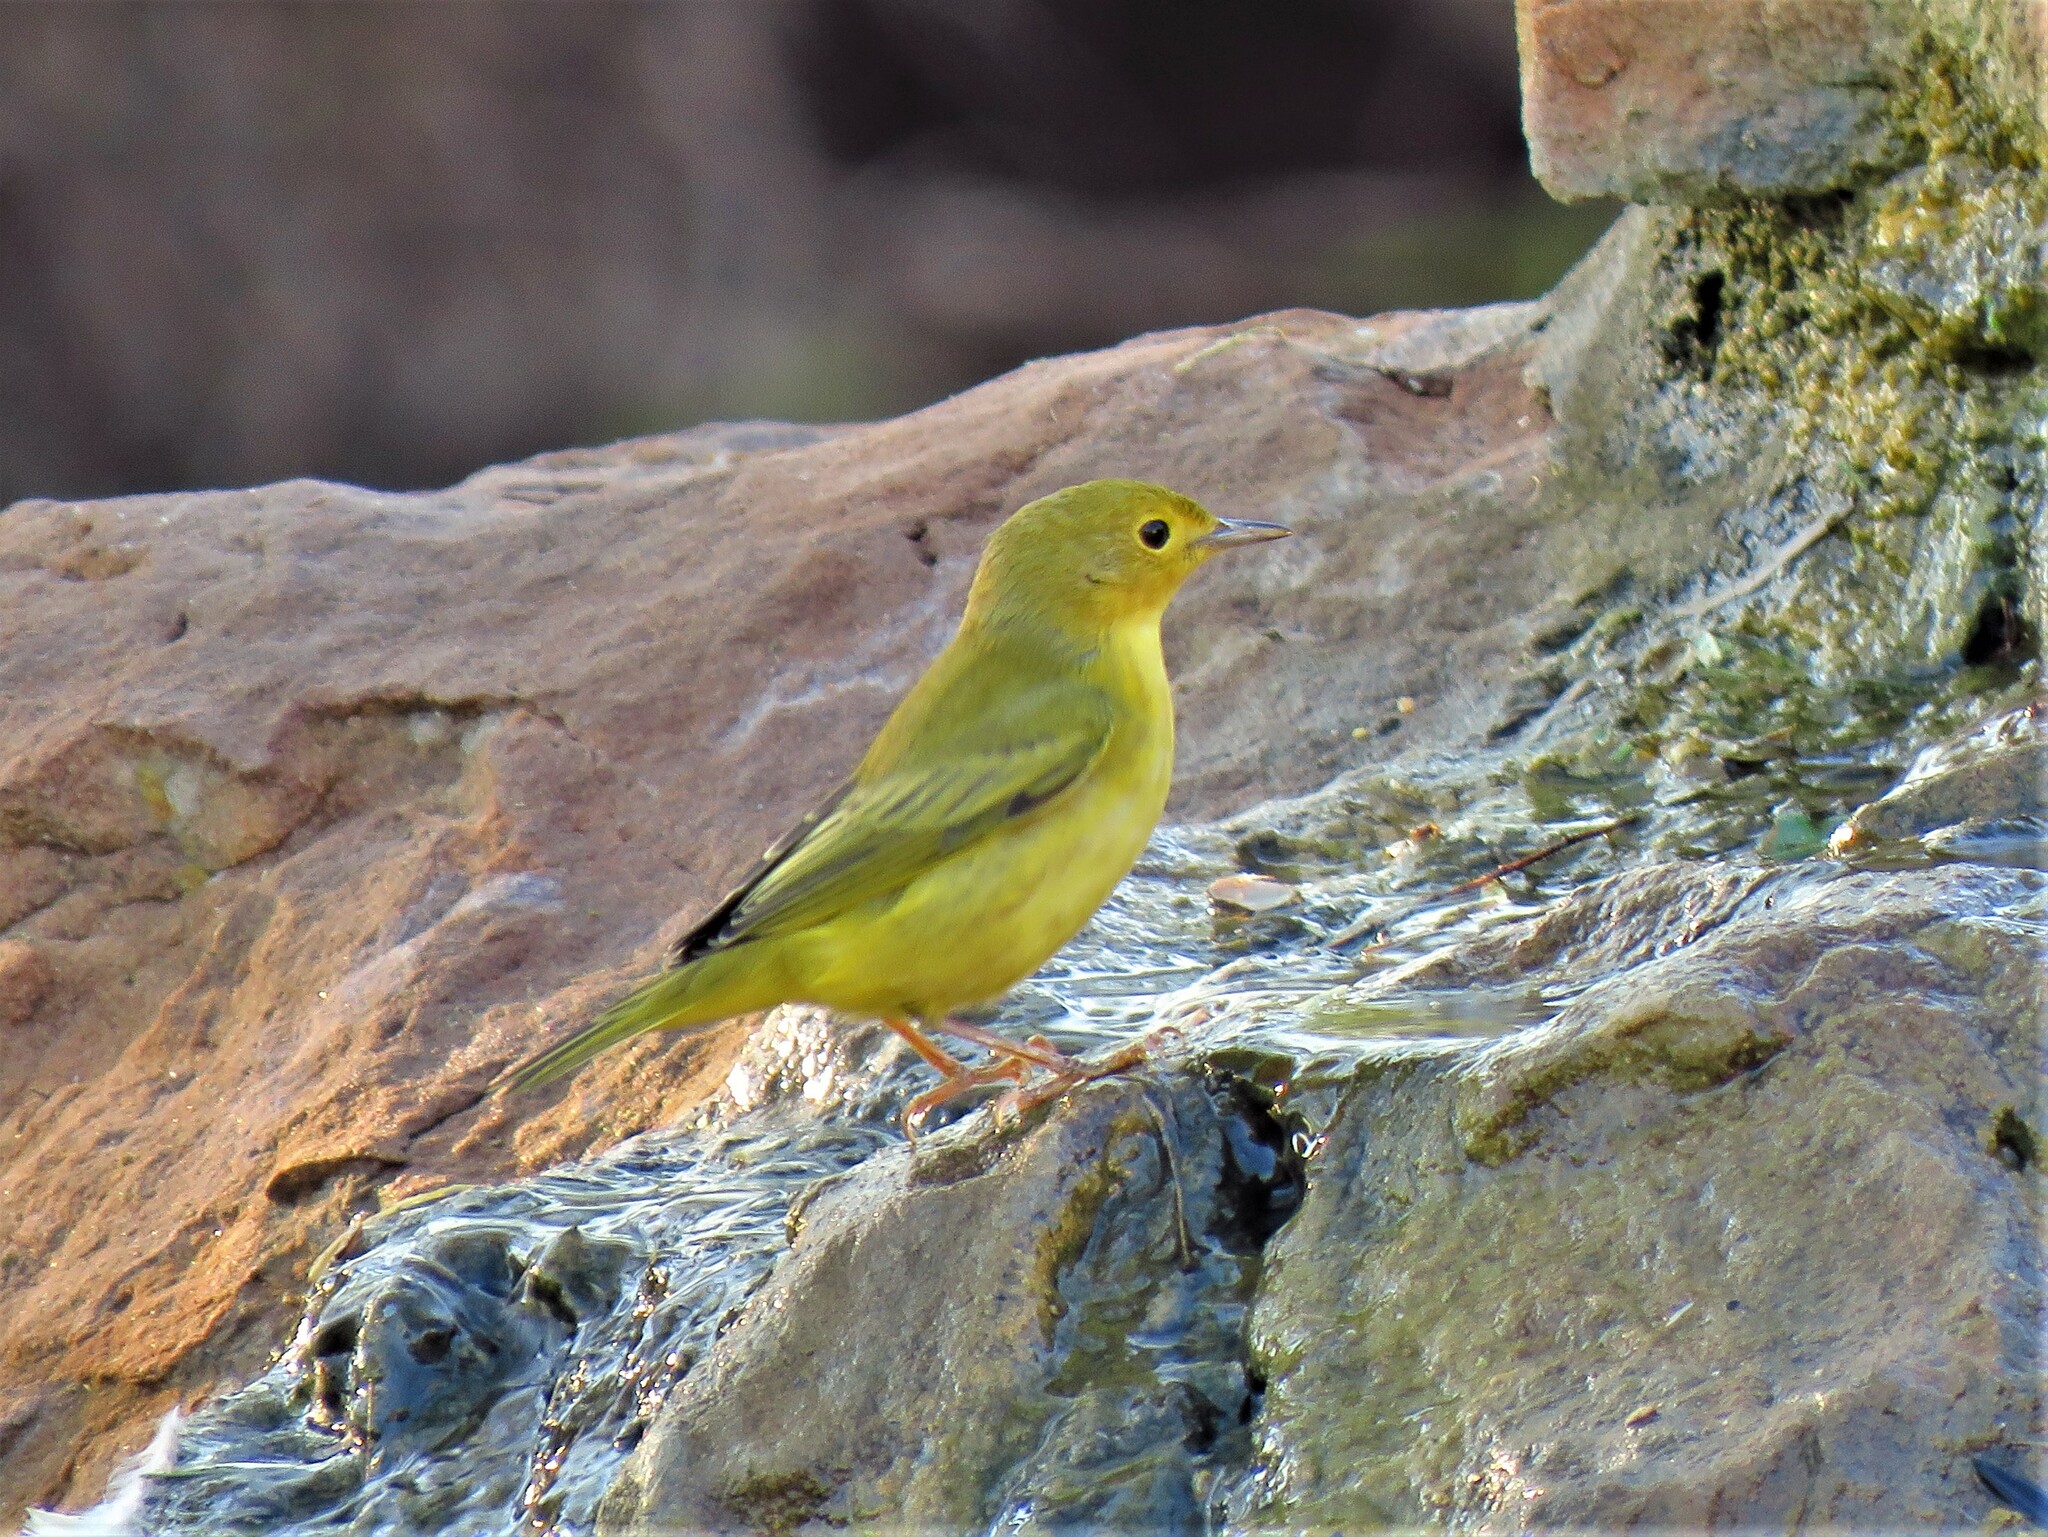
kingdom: Animalia
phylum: Chordata
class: Aves
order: Passeriformes
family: Parulidae
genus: Setophaga
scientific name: Setophaga petechia
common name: Yellow warbler
